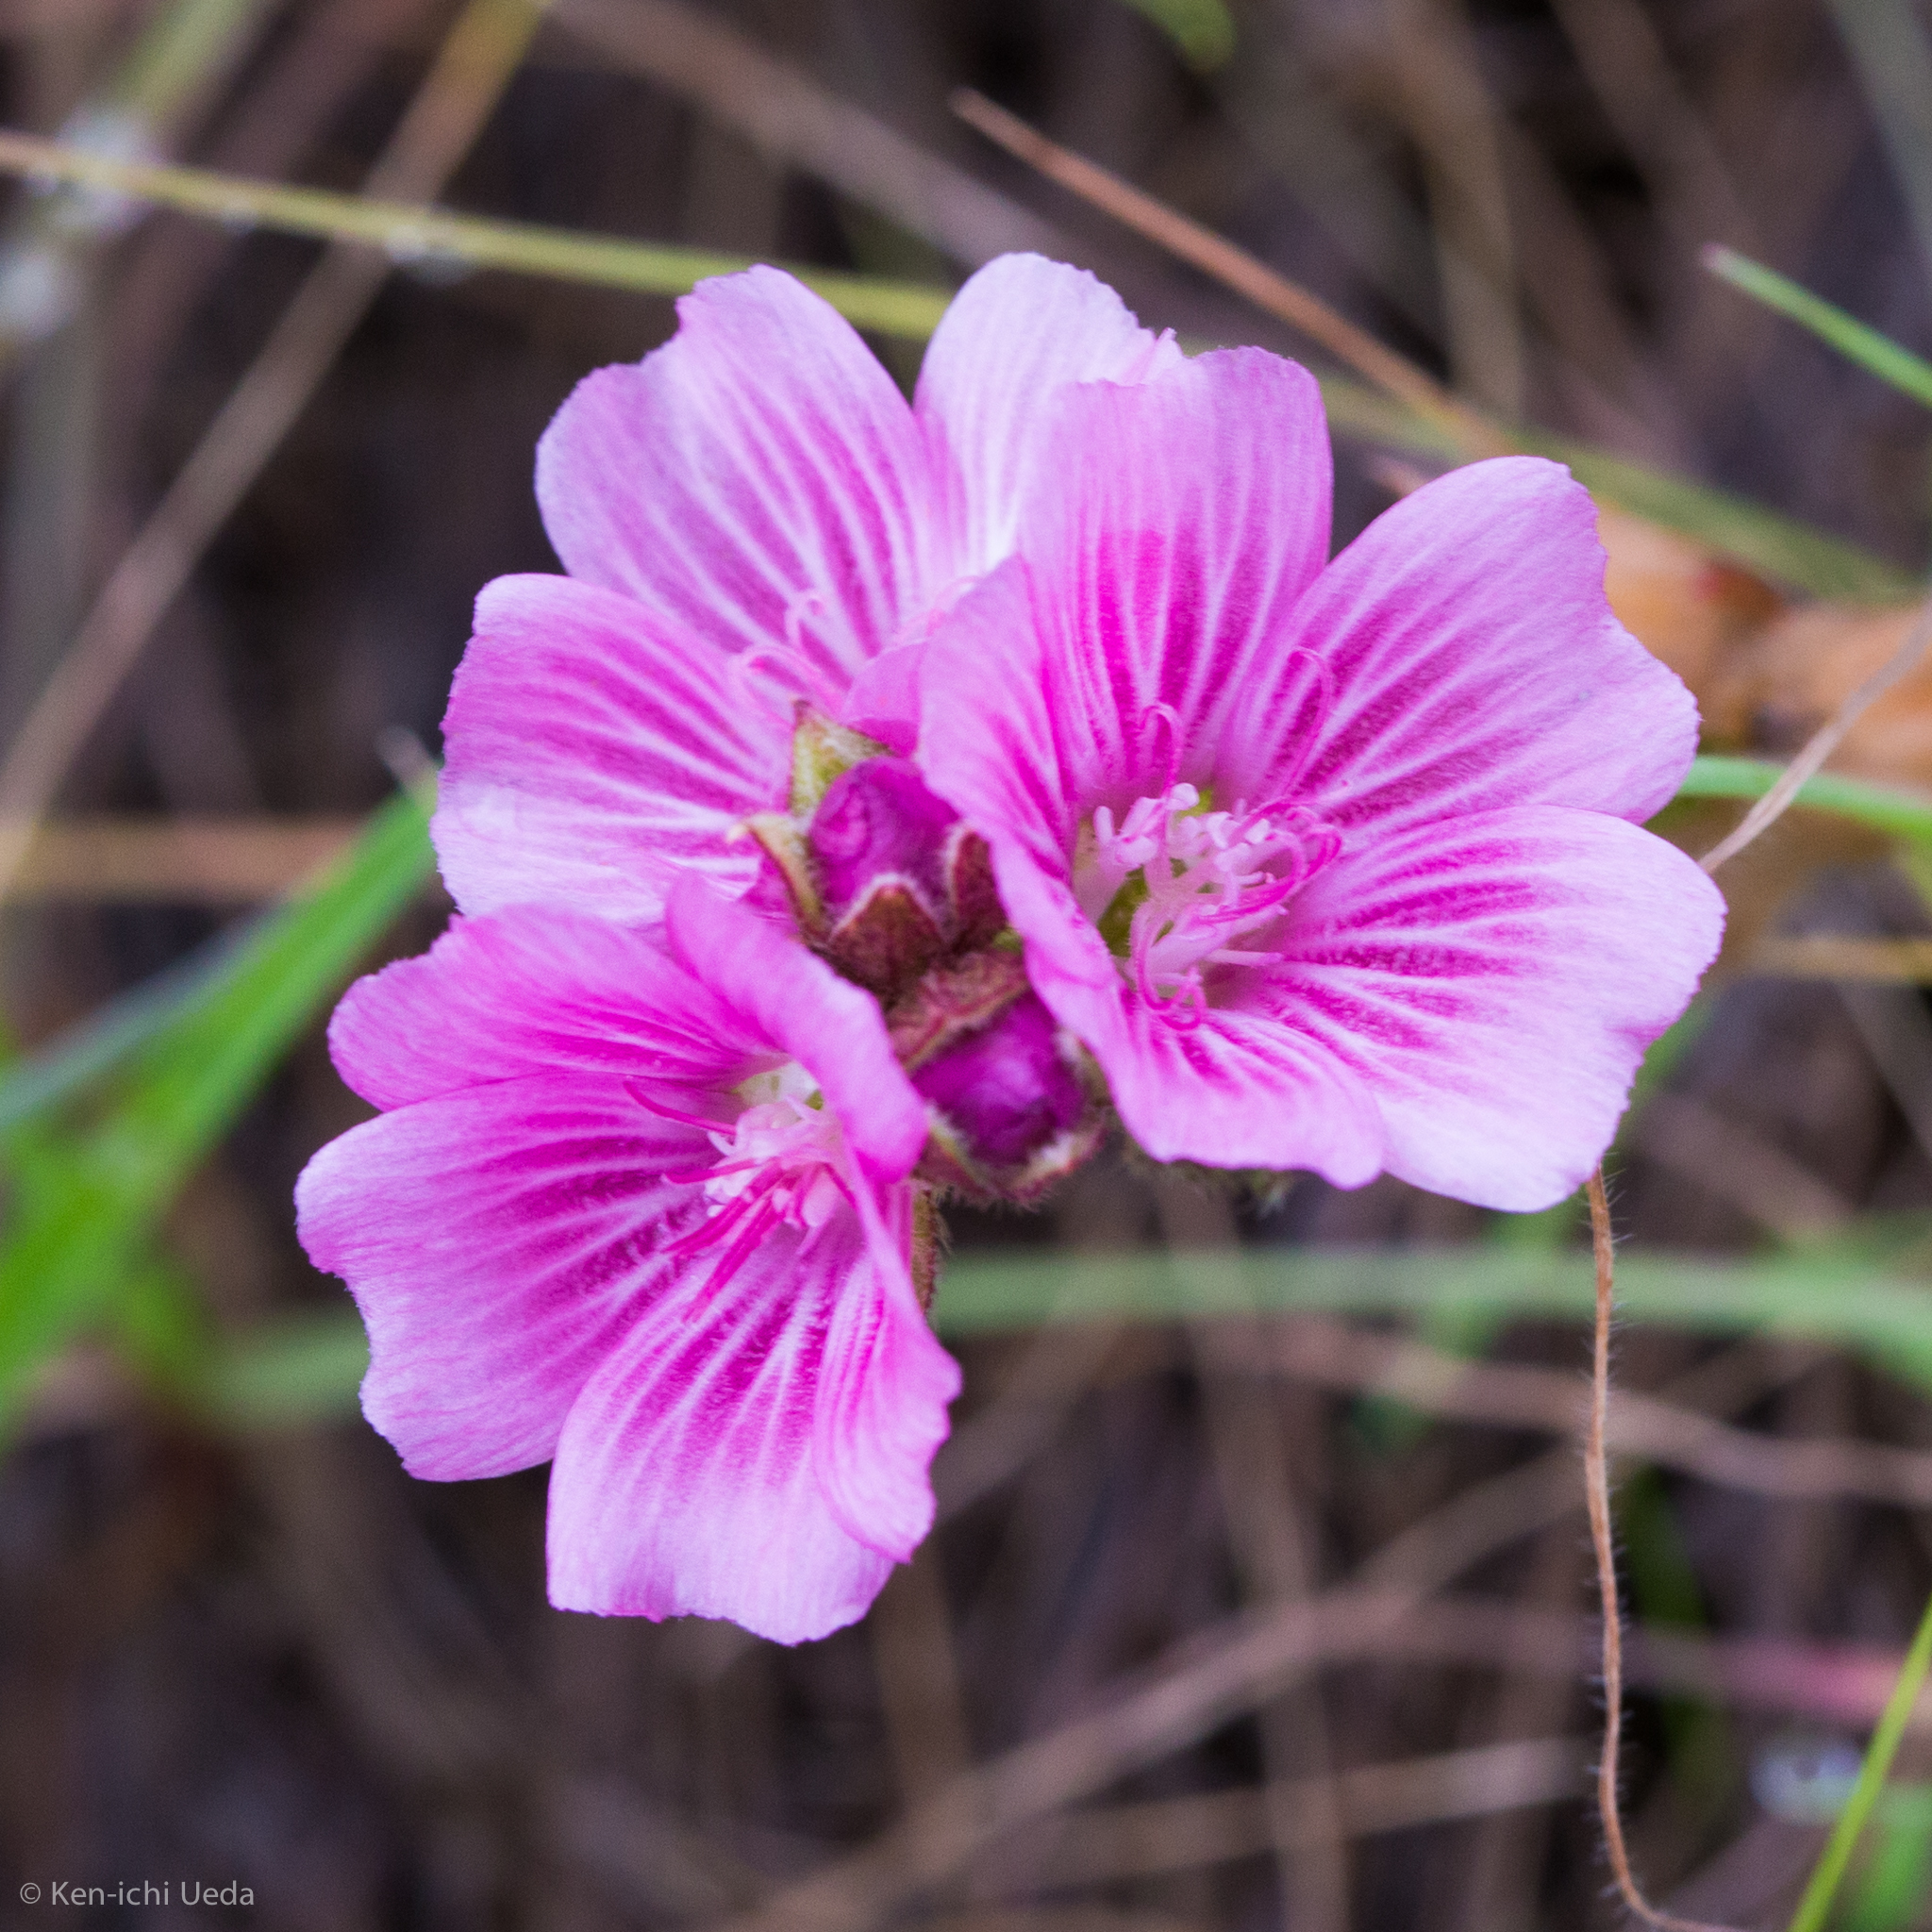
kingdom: Plantae
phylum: Tracheophyta
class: Magnoliopsida
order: Malvales
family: Malvaceae
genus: Sidalcea
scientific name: Sidalcea malviflora
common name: Greek mallow
